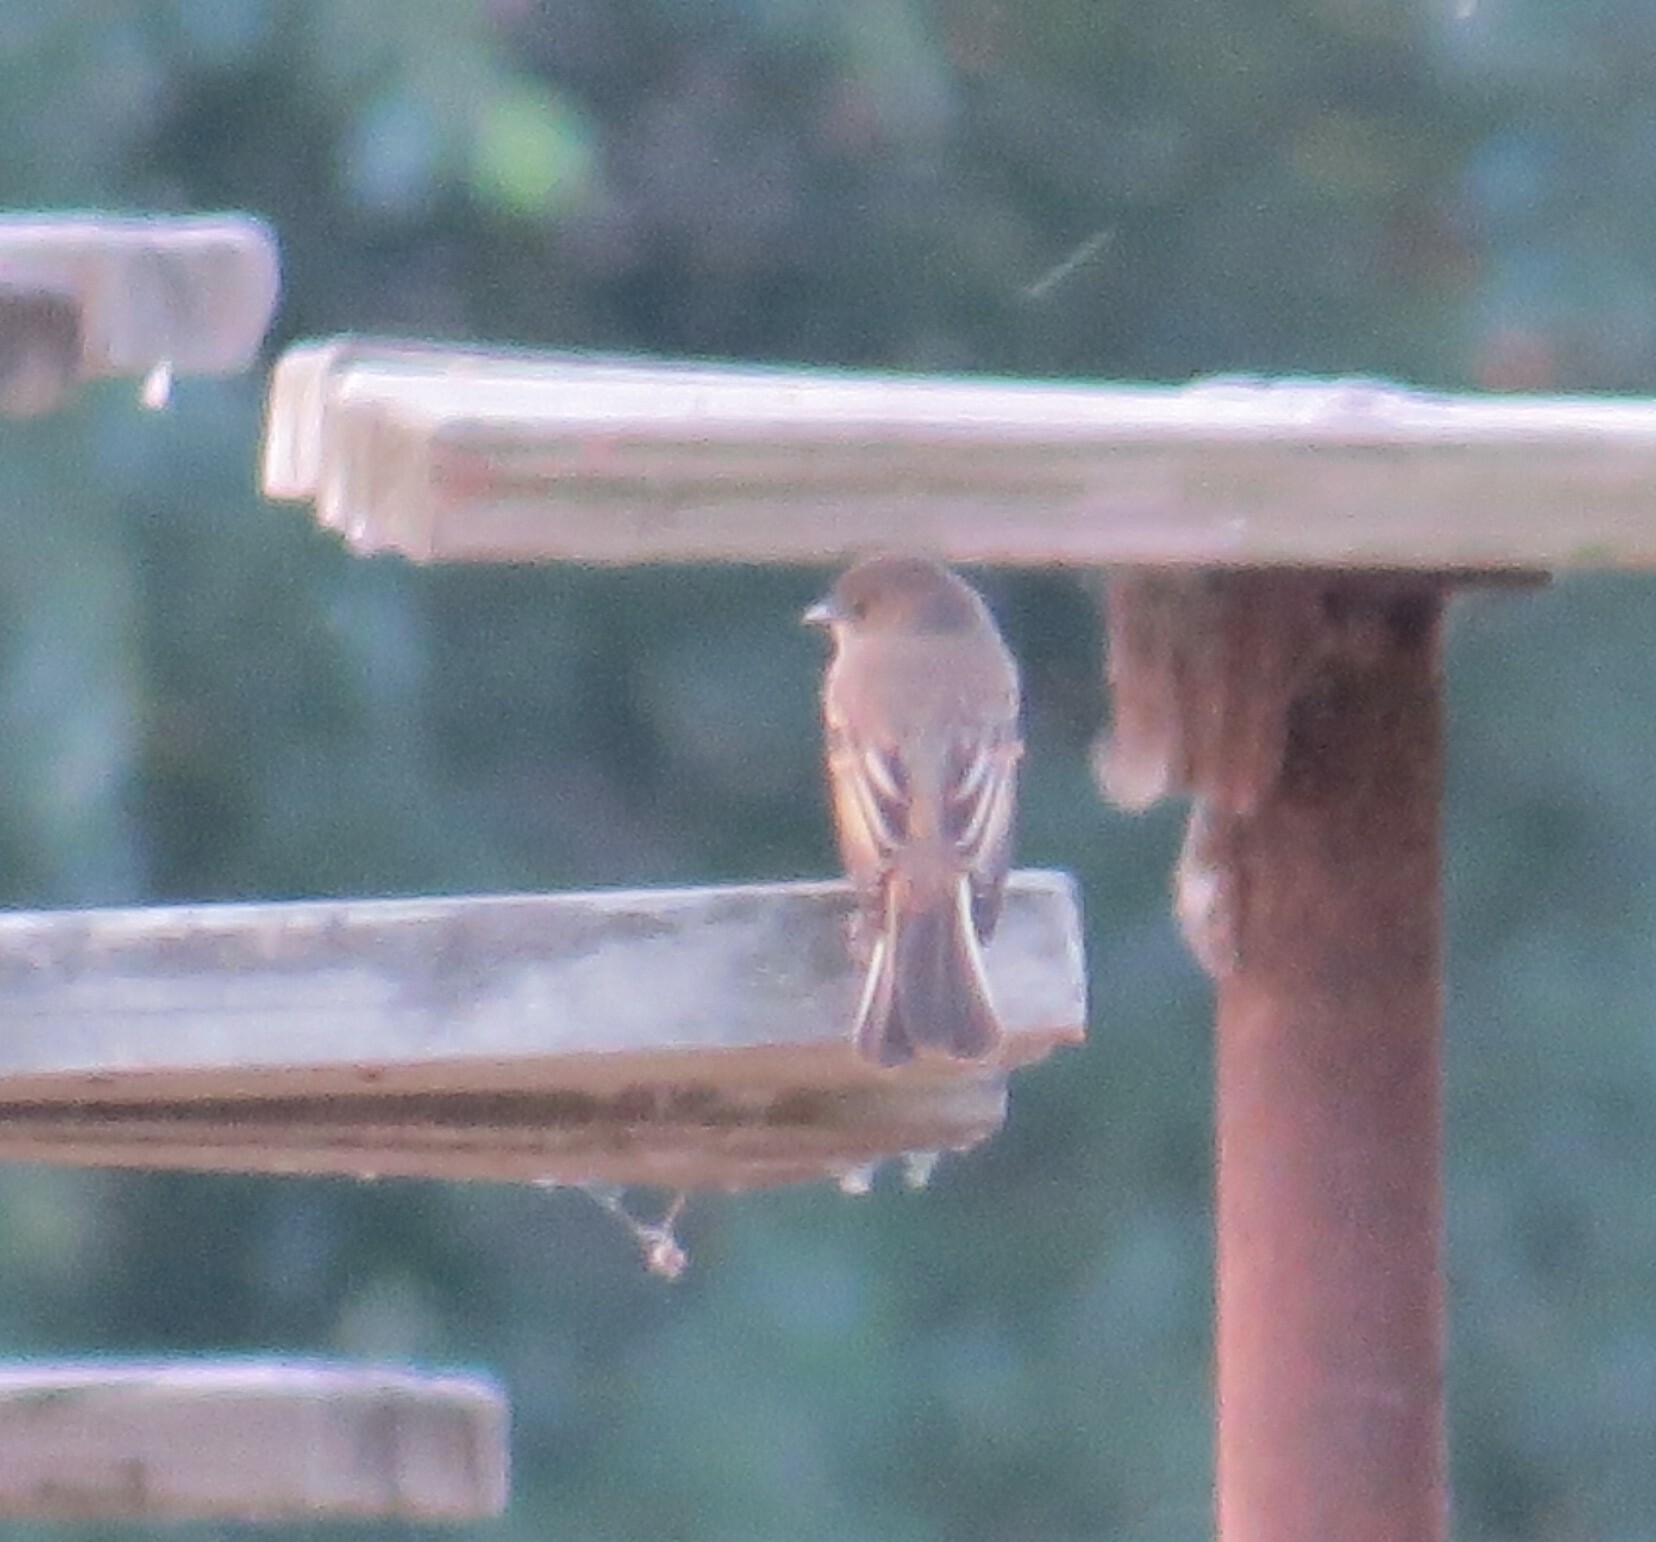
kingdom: Animalia
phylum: Chordata
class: Aves
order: Passeriformes
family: Tyrannidae
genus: Sayornis
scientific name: Sayornis phoebe
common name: Eastern phoebe
